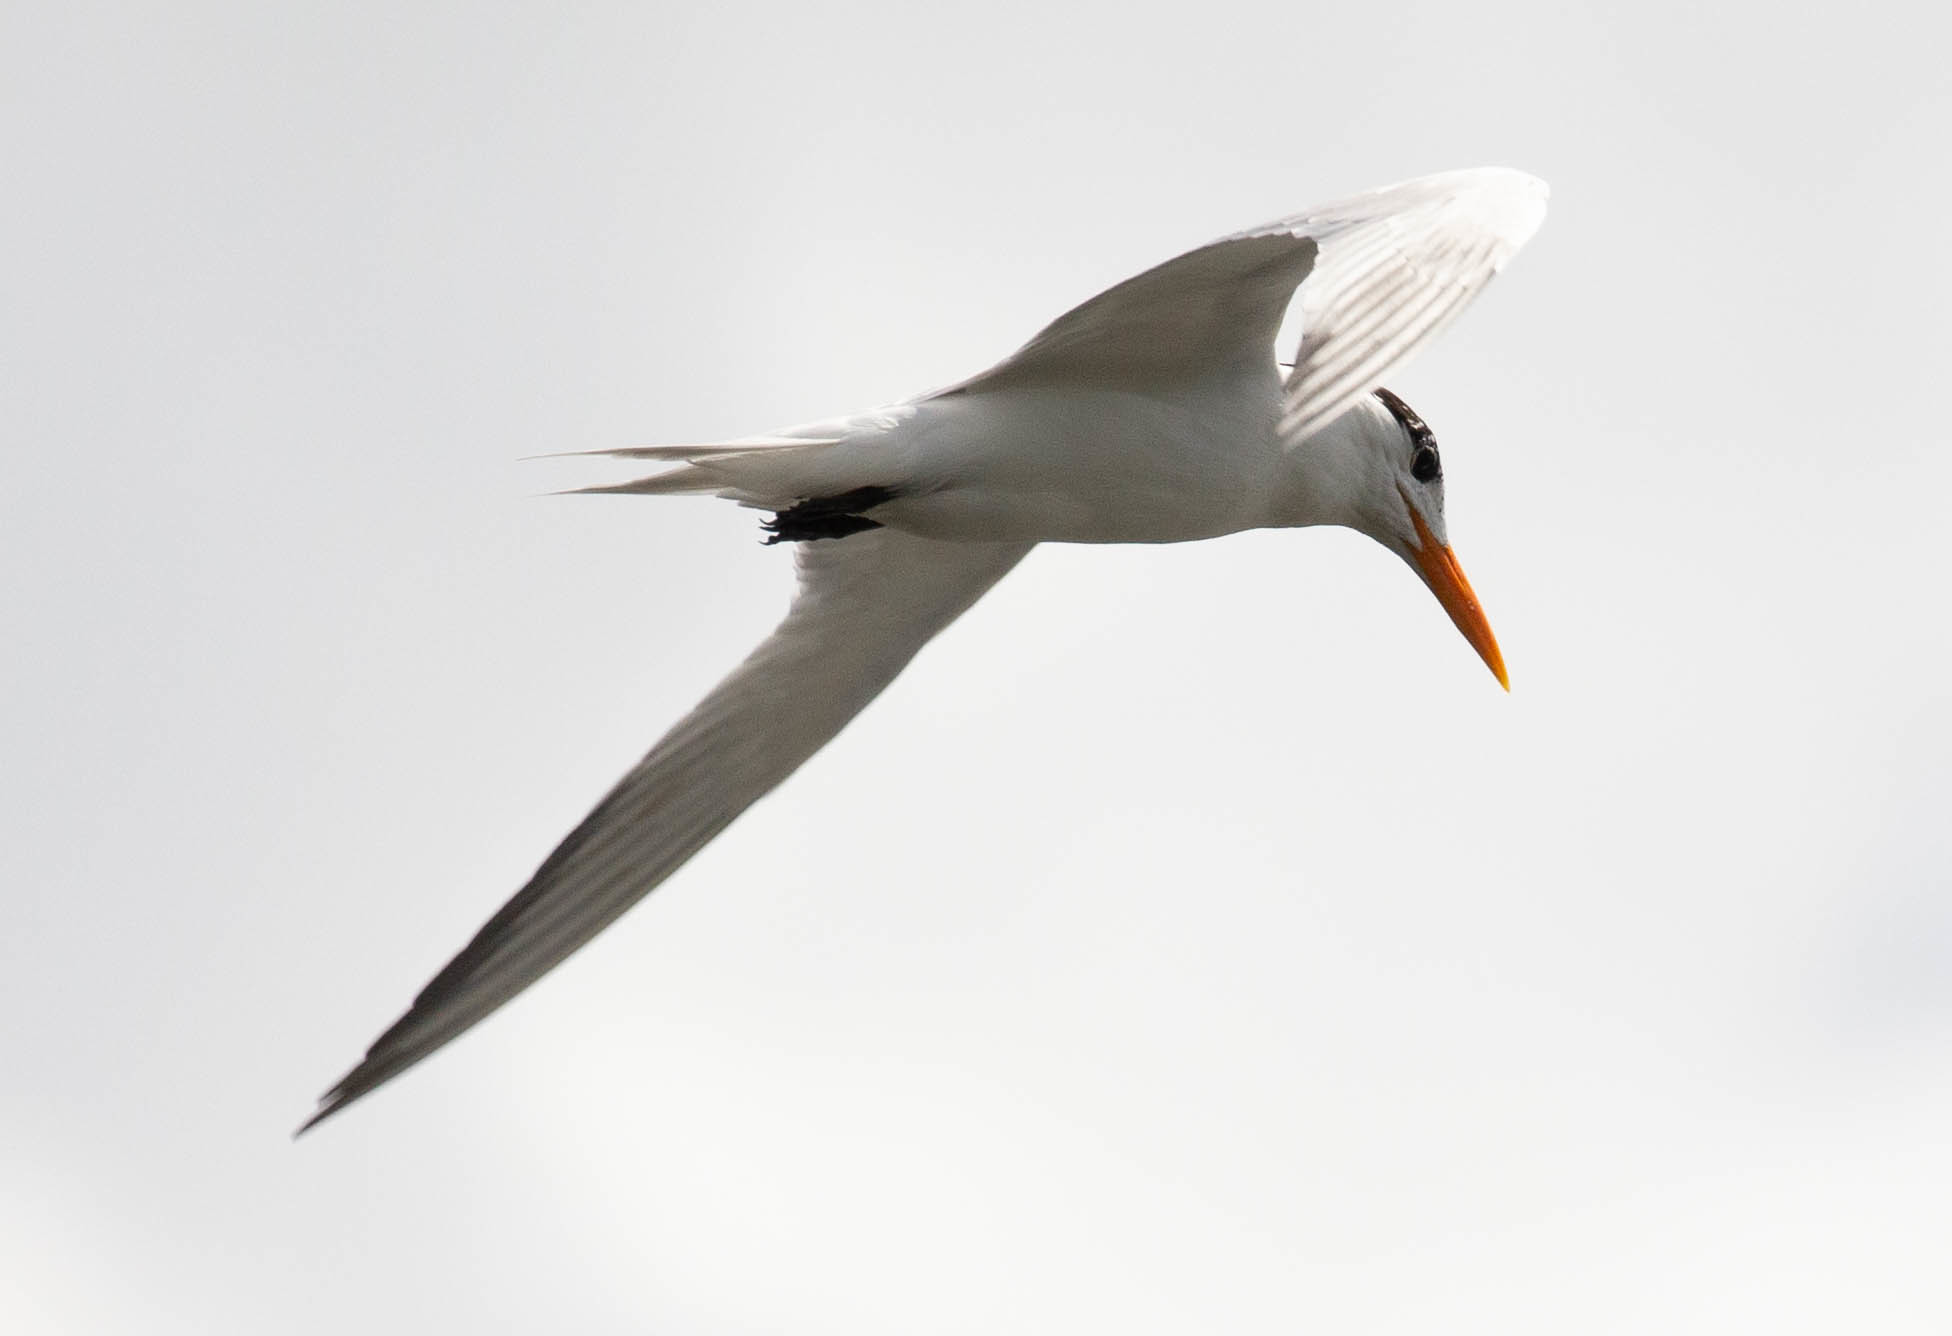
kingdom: Animalia
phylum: Chordata
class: Aves
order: Charadriiformes
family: Laridae
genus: Thalasseus
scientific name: Thalasseus maximus
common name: Royal tern
